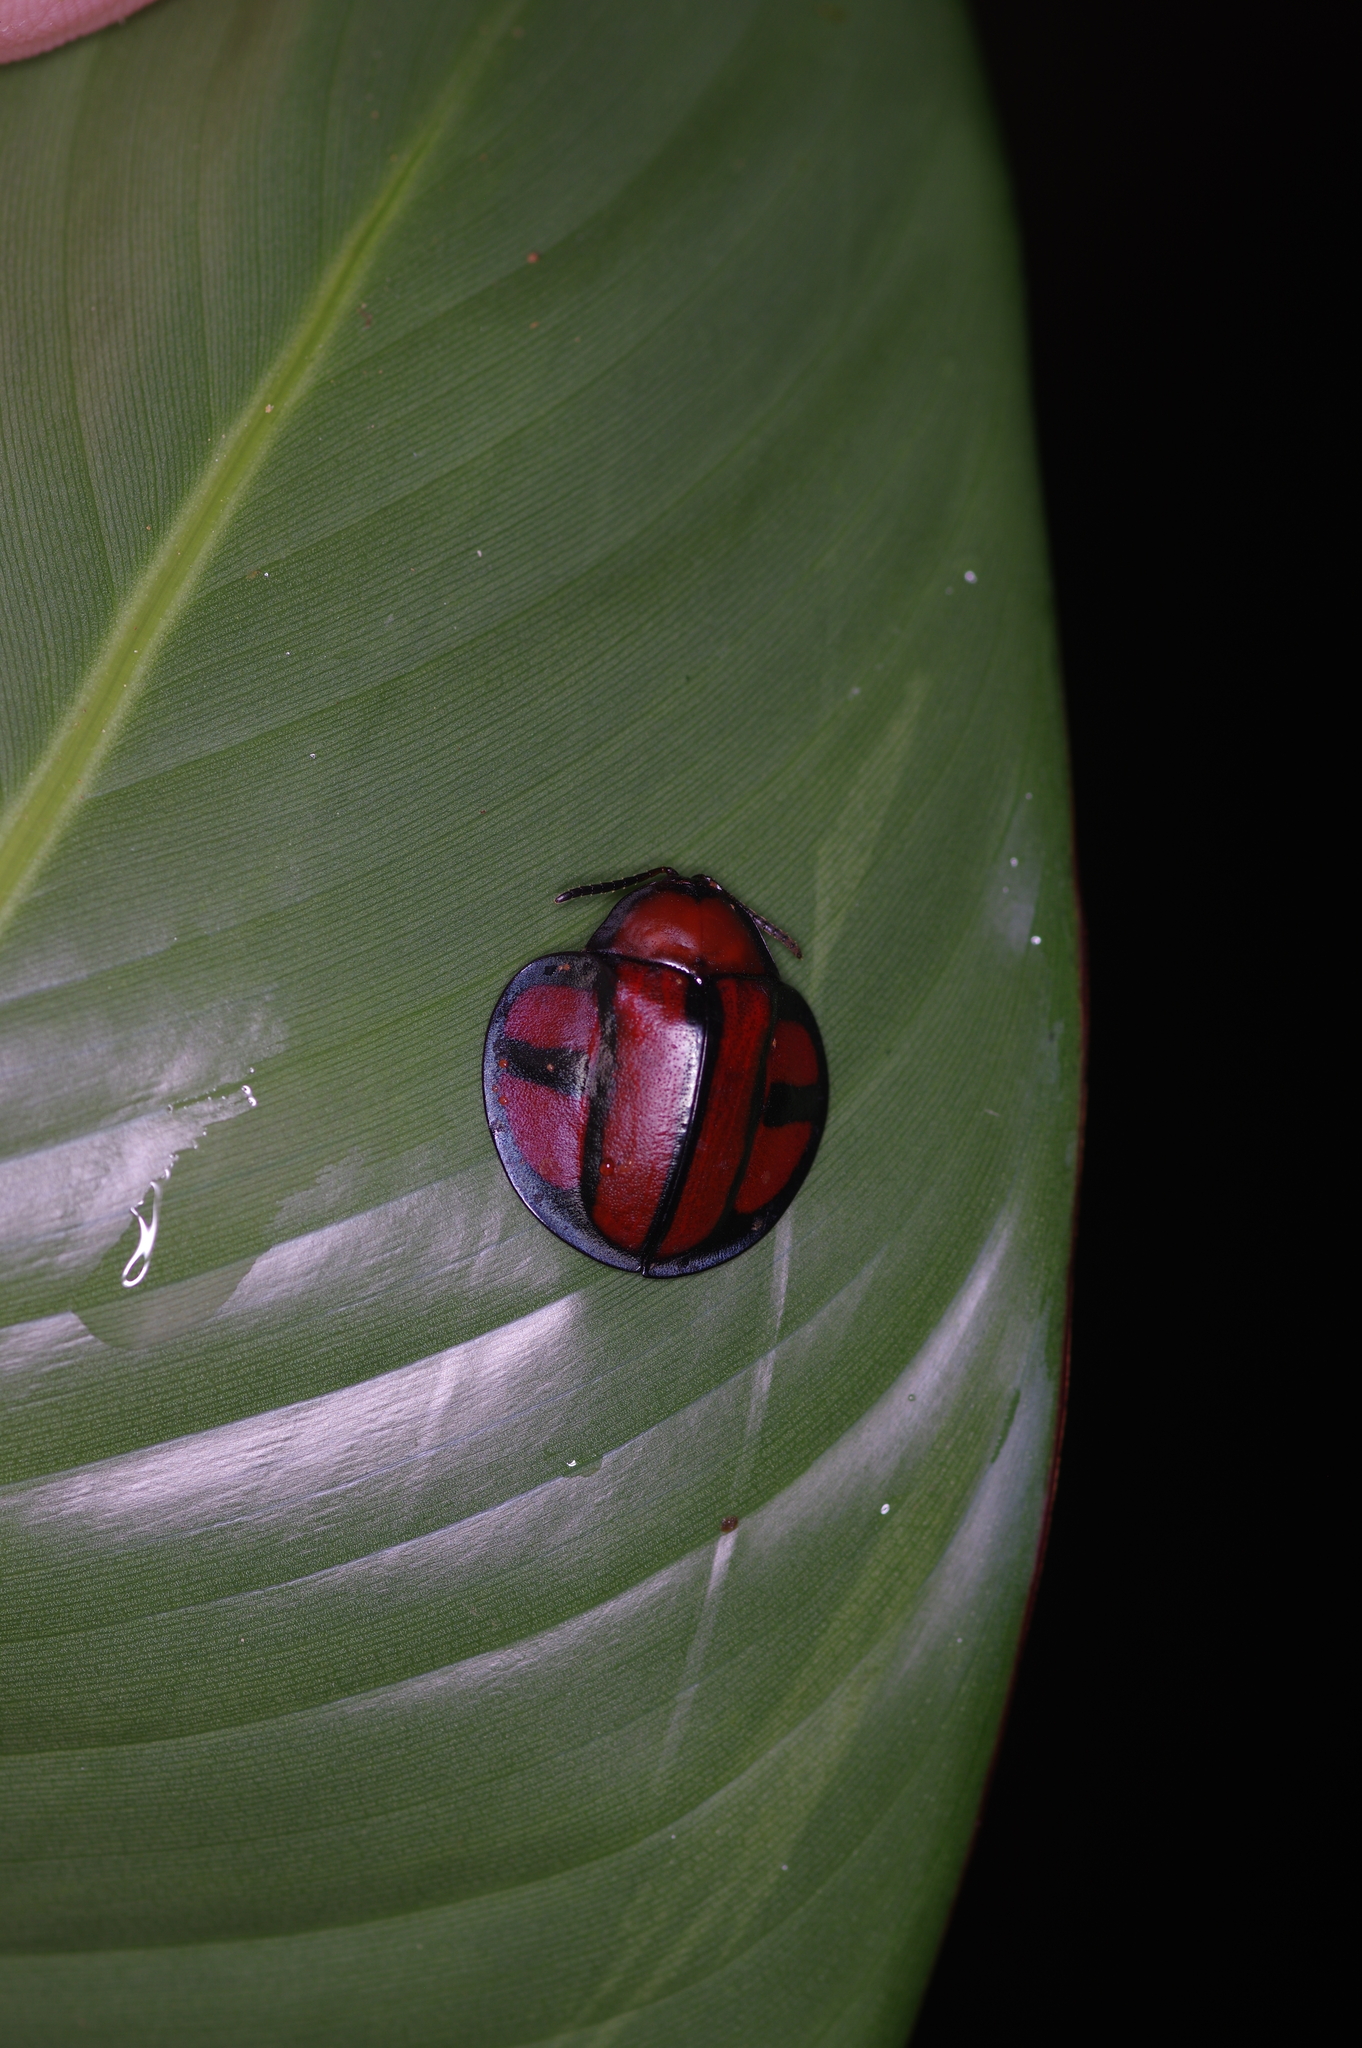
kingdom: Animalia
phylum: Arthropoda
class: Insecta
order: Coleoptera
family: Chrysomelidae
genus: Omaspides
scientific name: Omaspides clathrata
